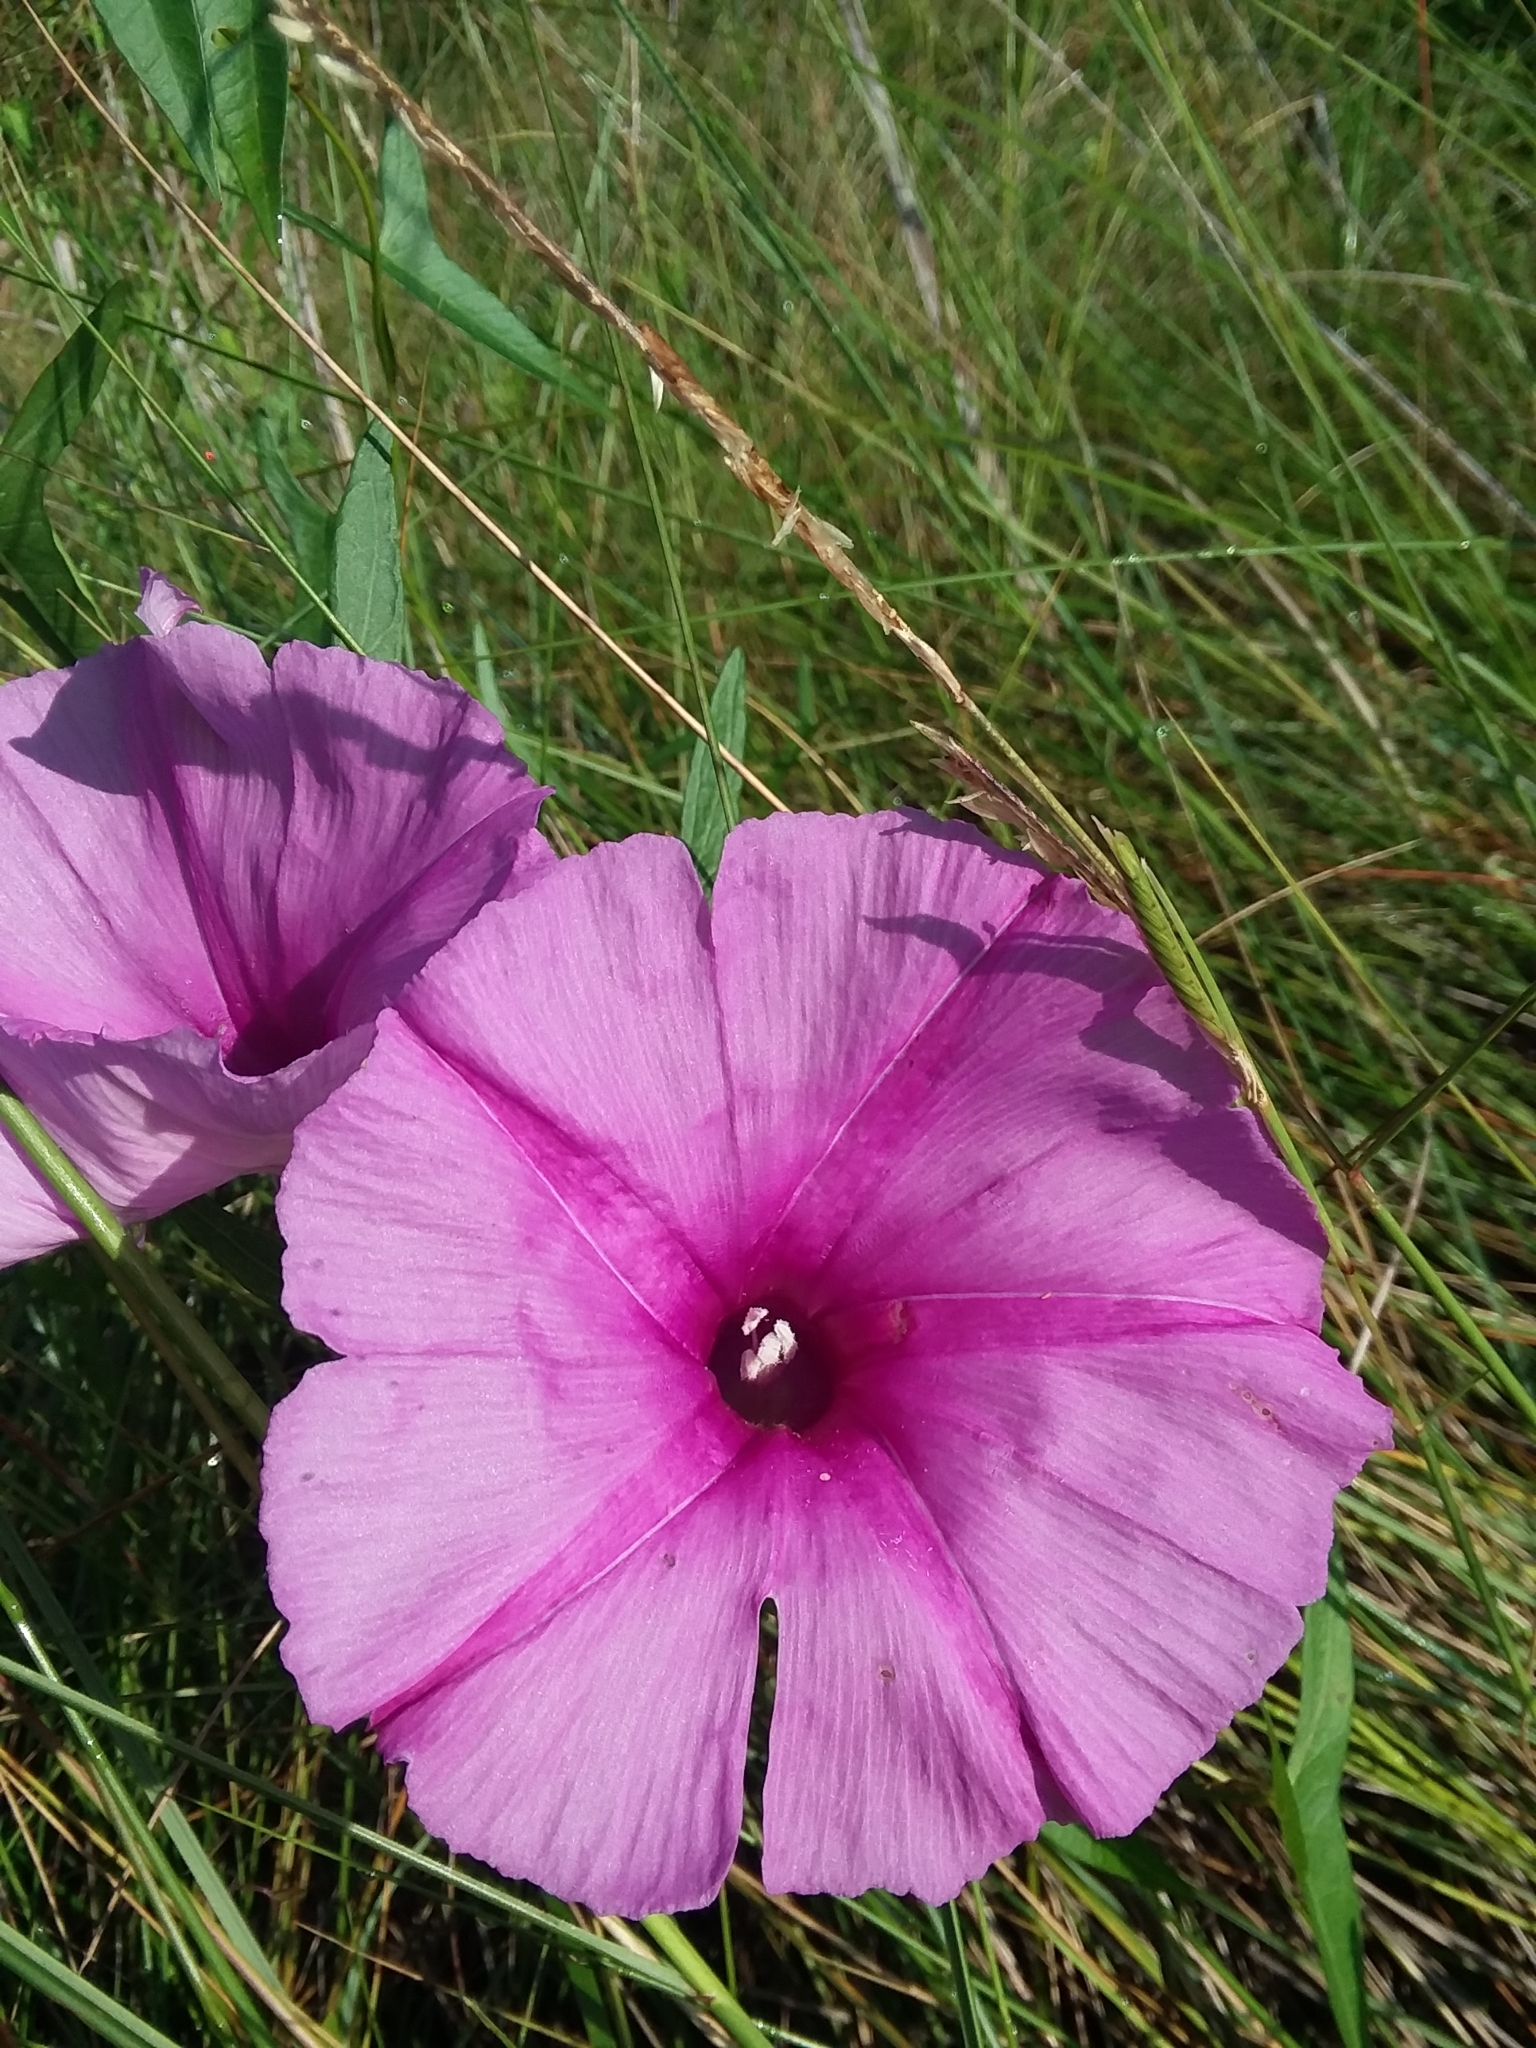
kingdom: Plantae
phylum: Tracheophyta
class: Magnoliopsida
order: Solanales
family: Convolvulaceae
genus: Ipomoea
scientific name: Ipomoea sagittata
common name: Saltmarsh morning glory
